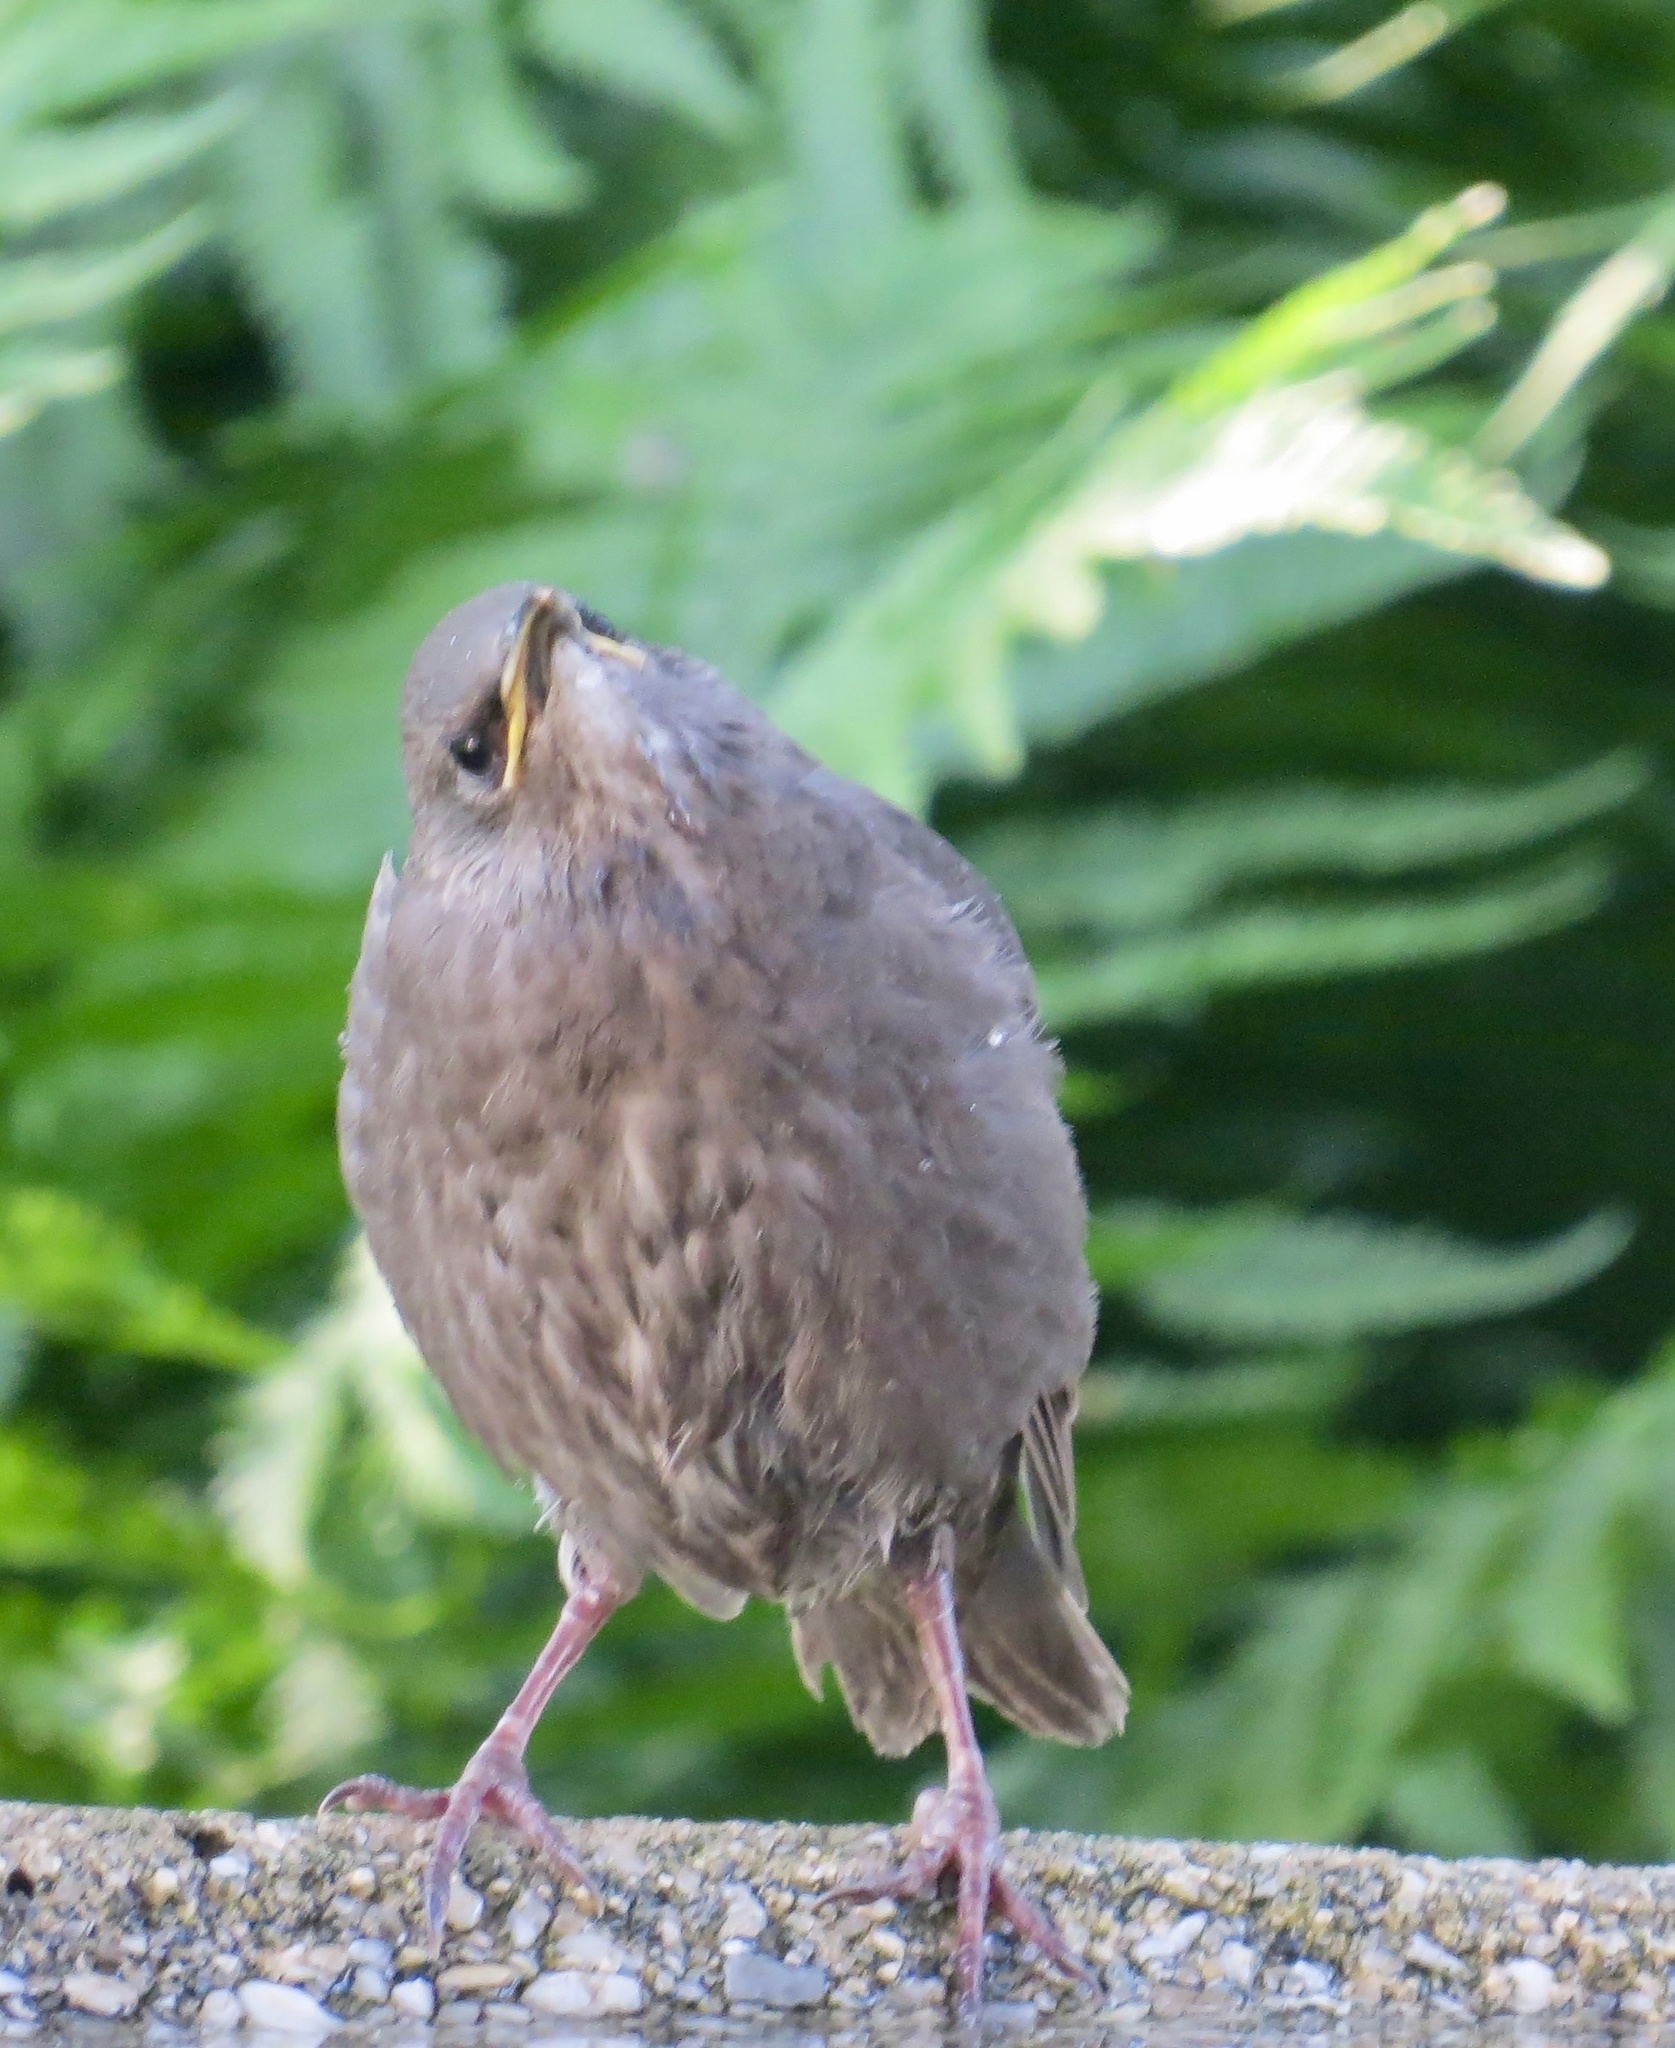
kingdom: Animalia
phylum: Chordata
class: Aves
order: Passeriformes
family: Sturnidae
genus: Sturnus
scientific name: Sturnus vulgaris
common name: Common starling
